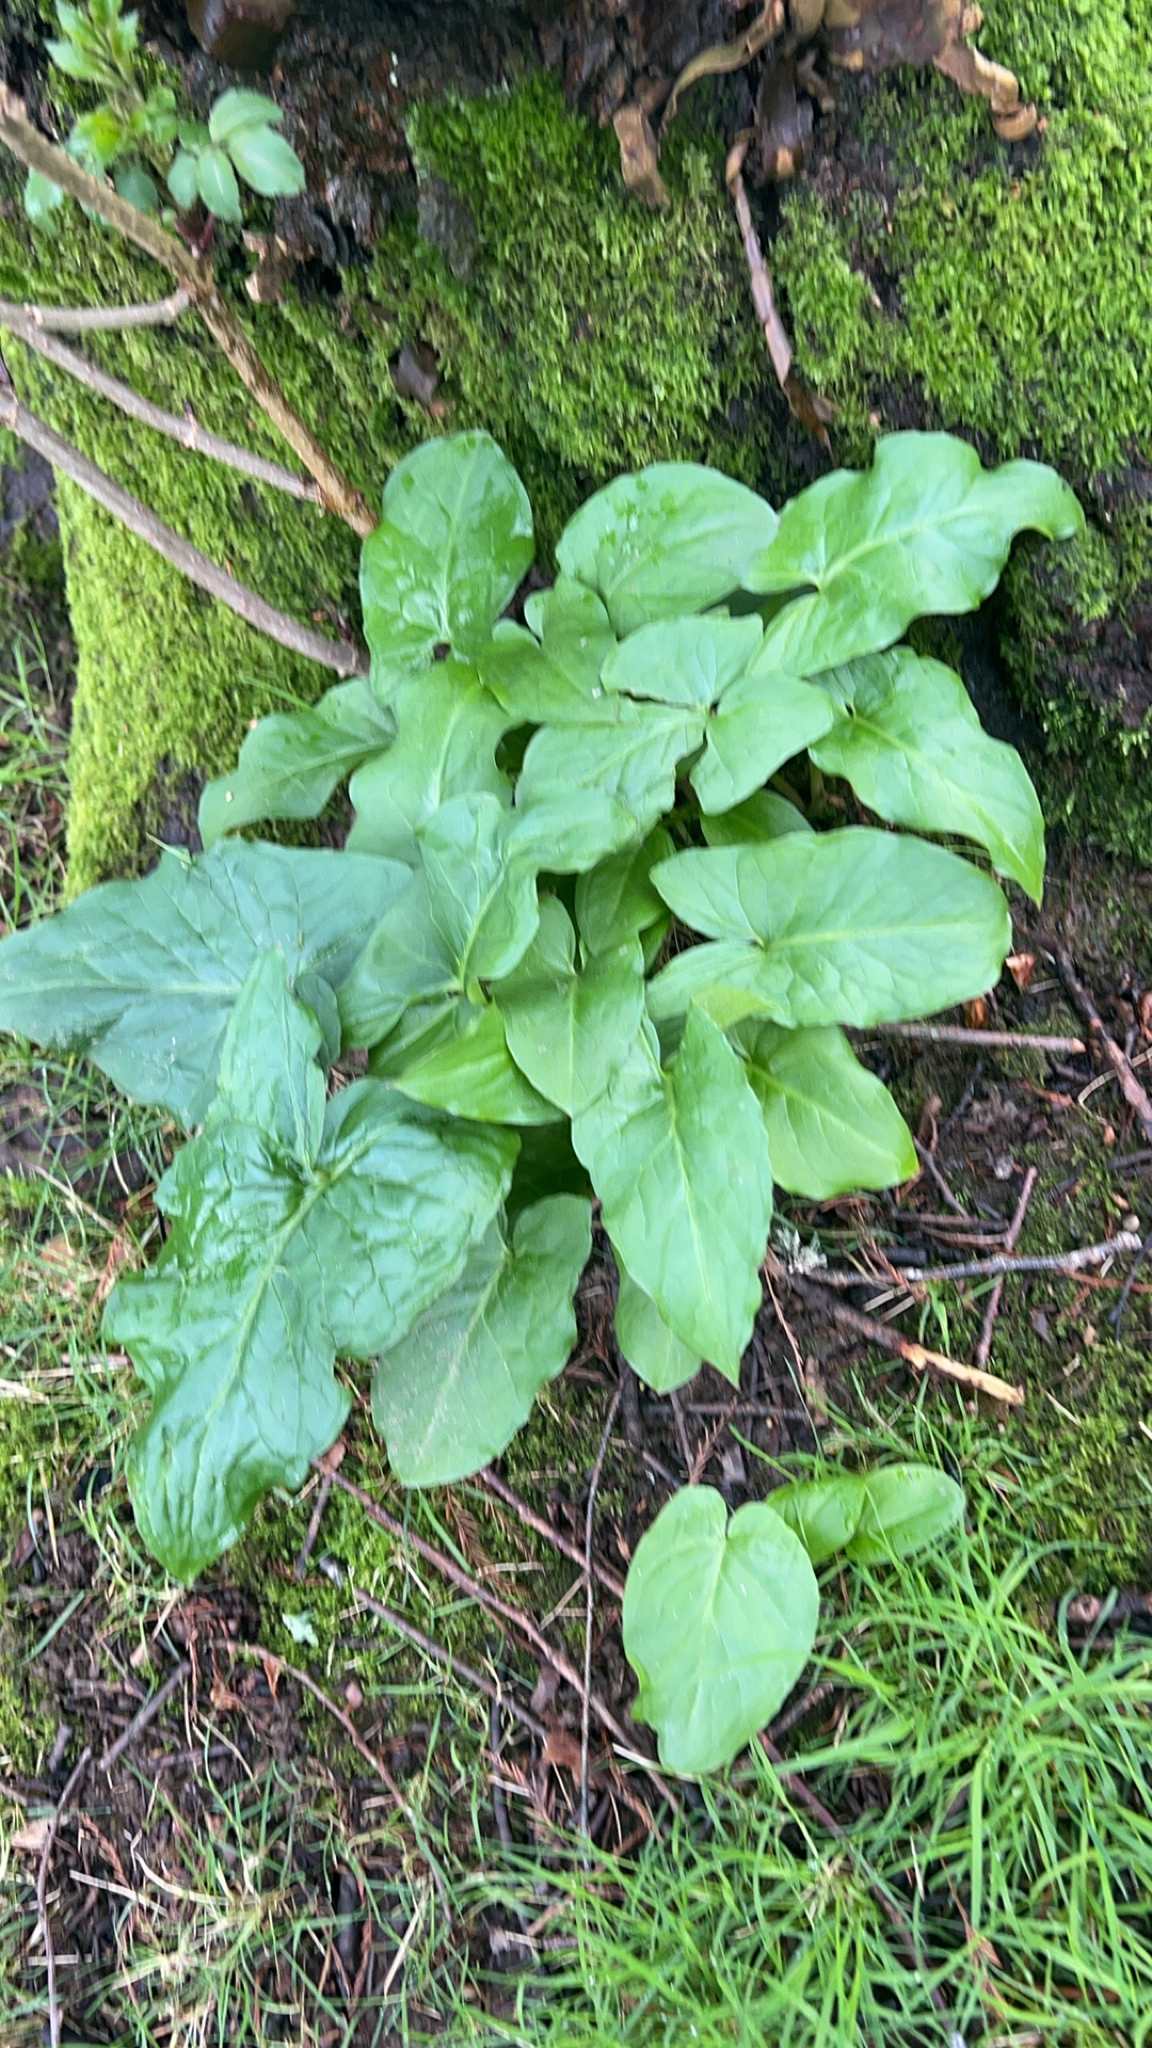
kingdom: Plantae
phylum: Tracheophyta
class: Liliopsida
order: Alismatales
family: Araceae
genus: Arum
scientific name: Arum maculatum
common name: Lords-and-ladies
